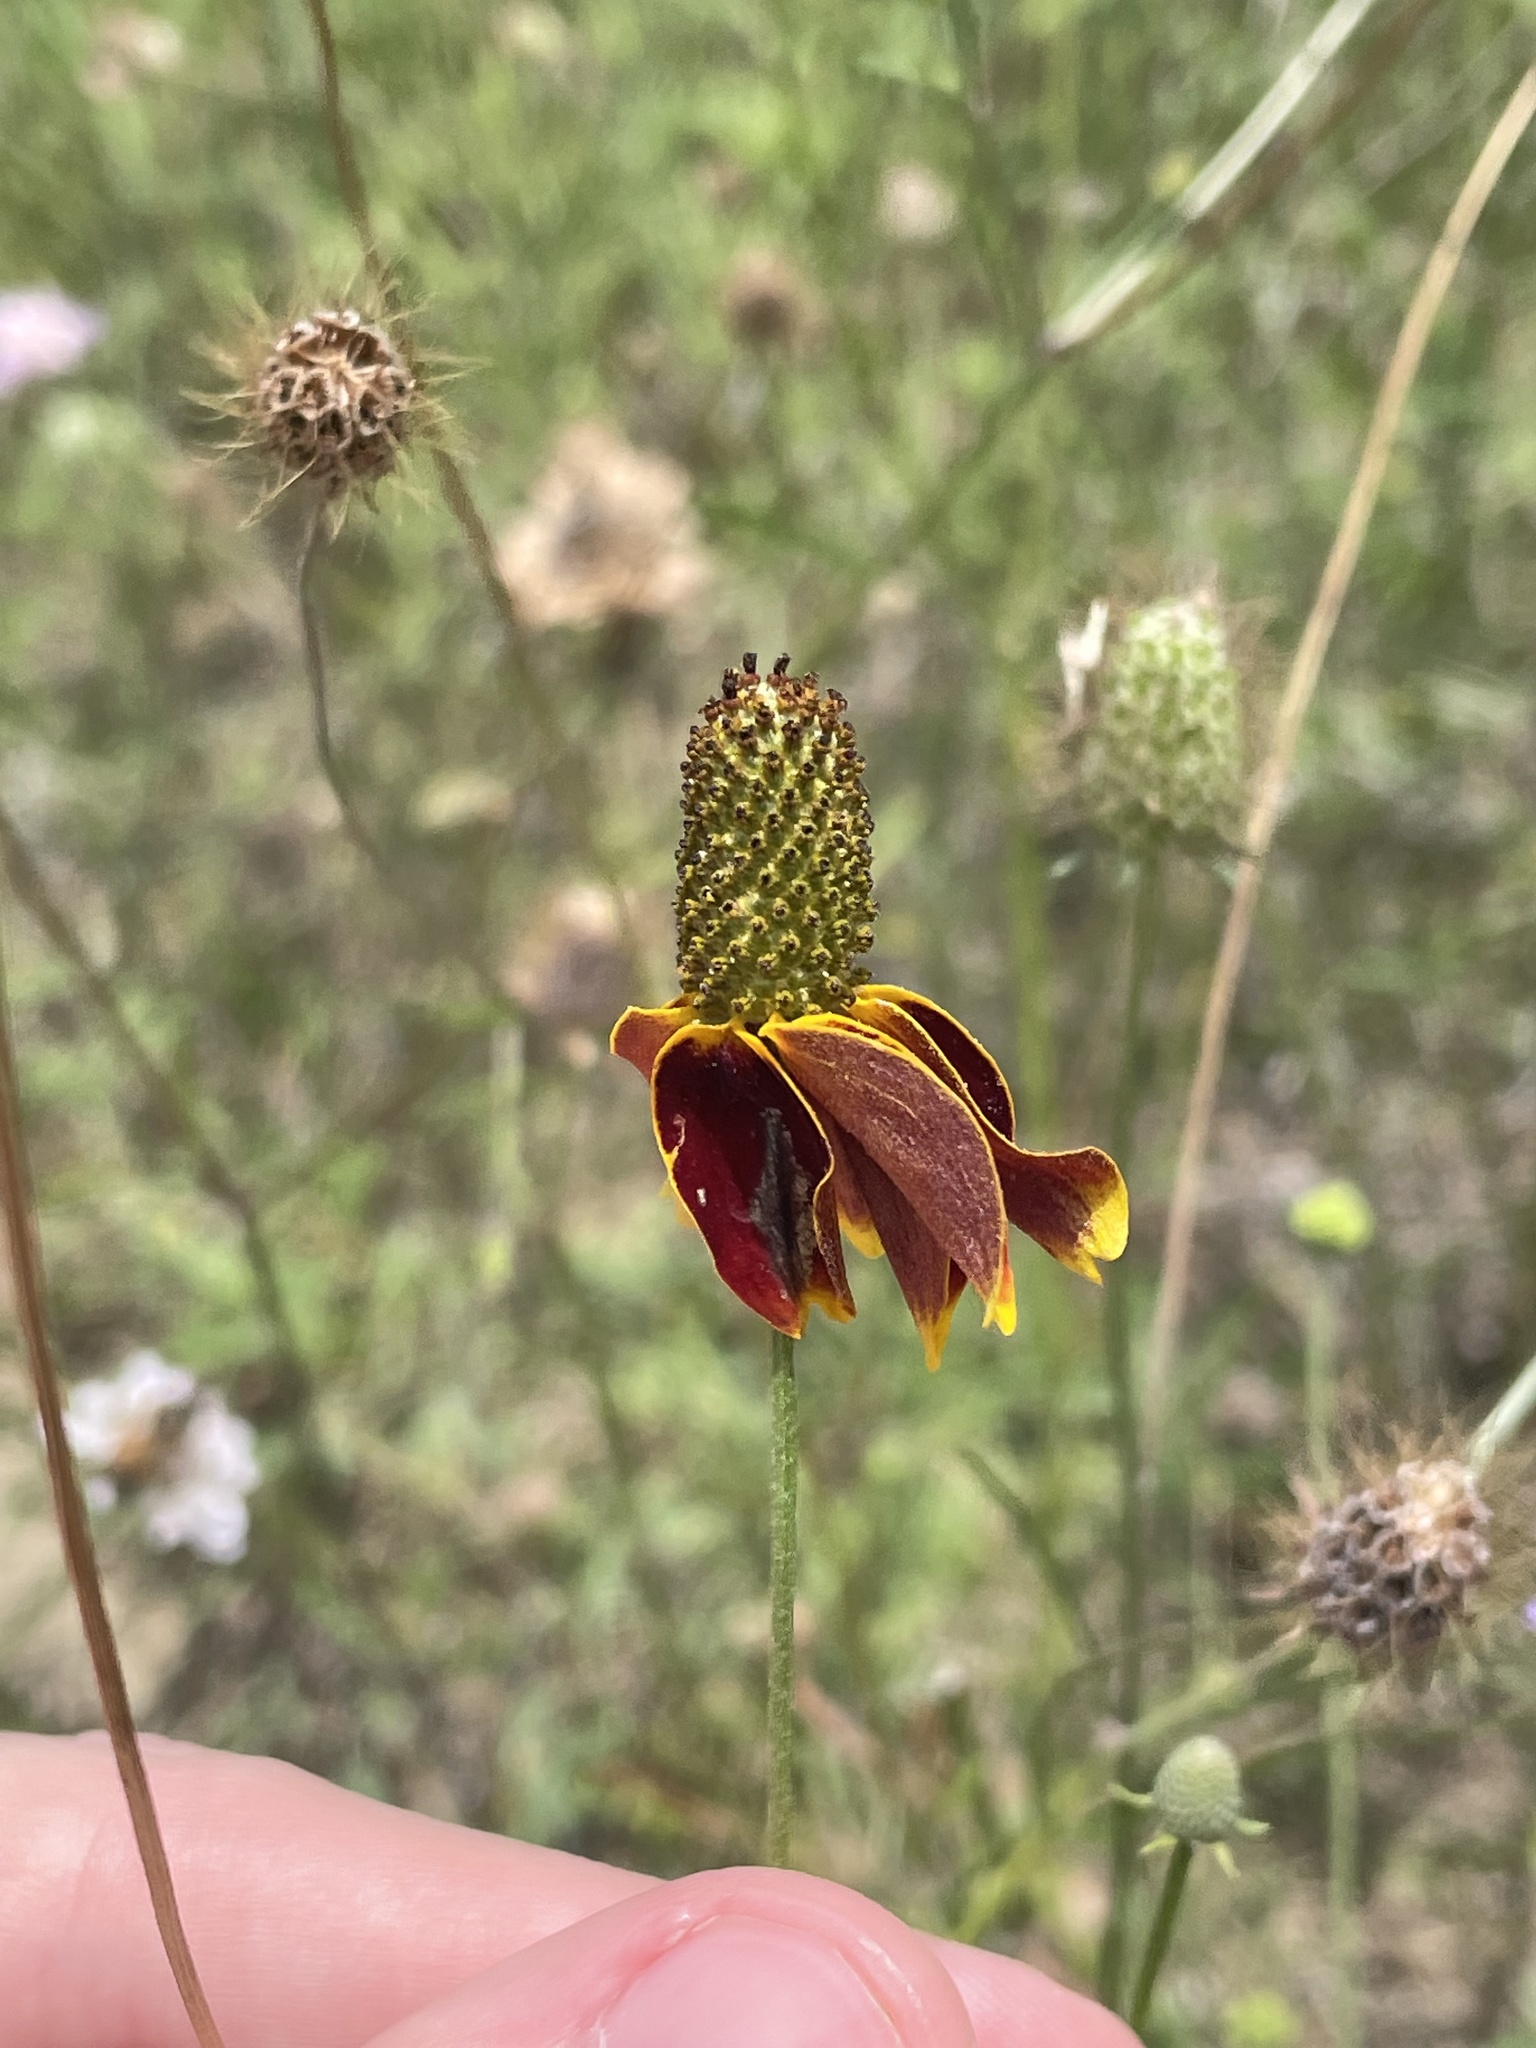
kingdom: Plantae
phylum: Tracheophyta
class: Magnoliopsida
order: Asterales
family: Asteraceae
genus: Ratibida
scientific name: Ratibida columnifera
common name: Prairie coneflower
